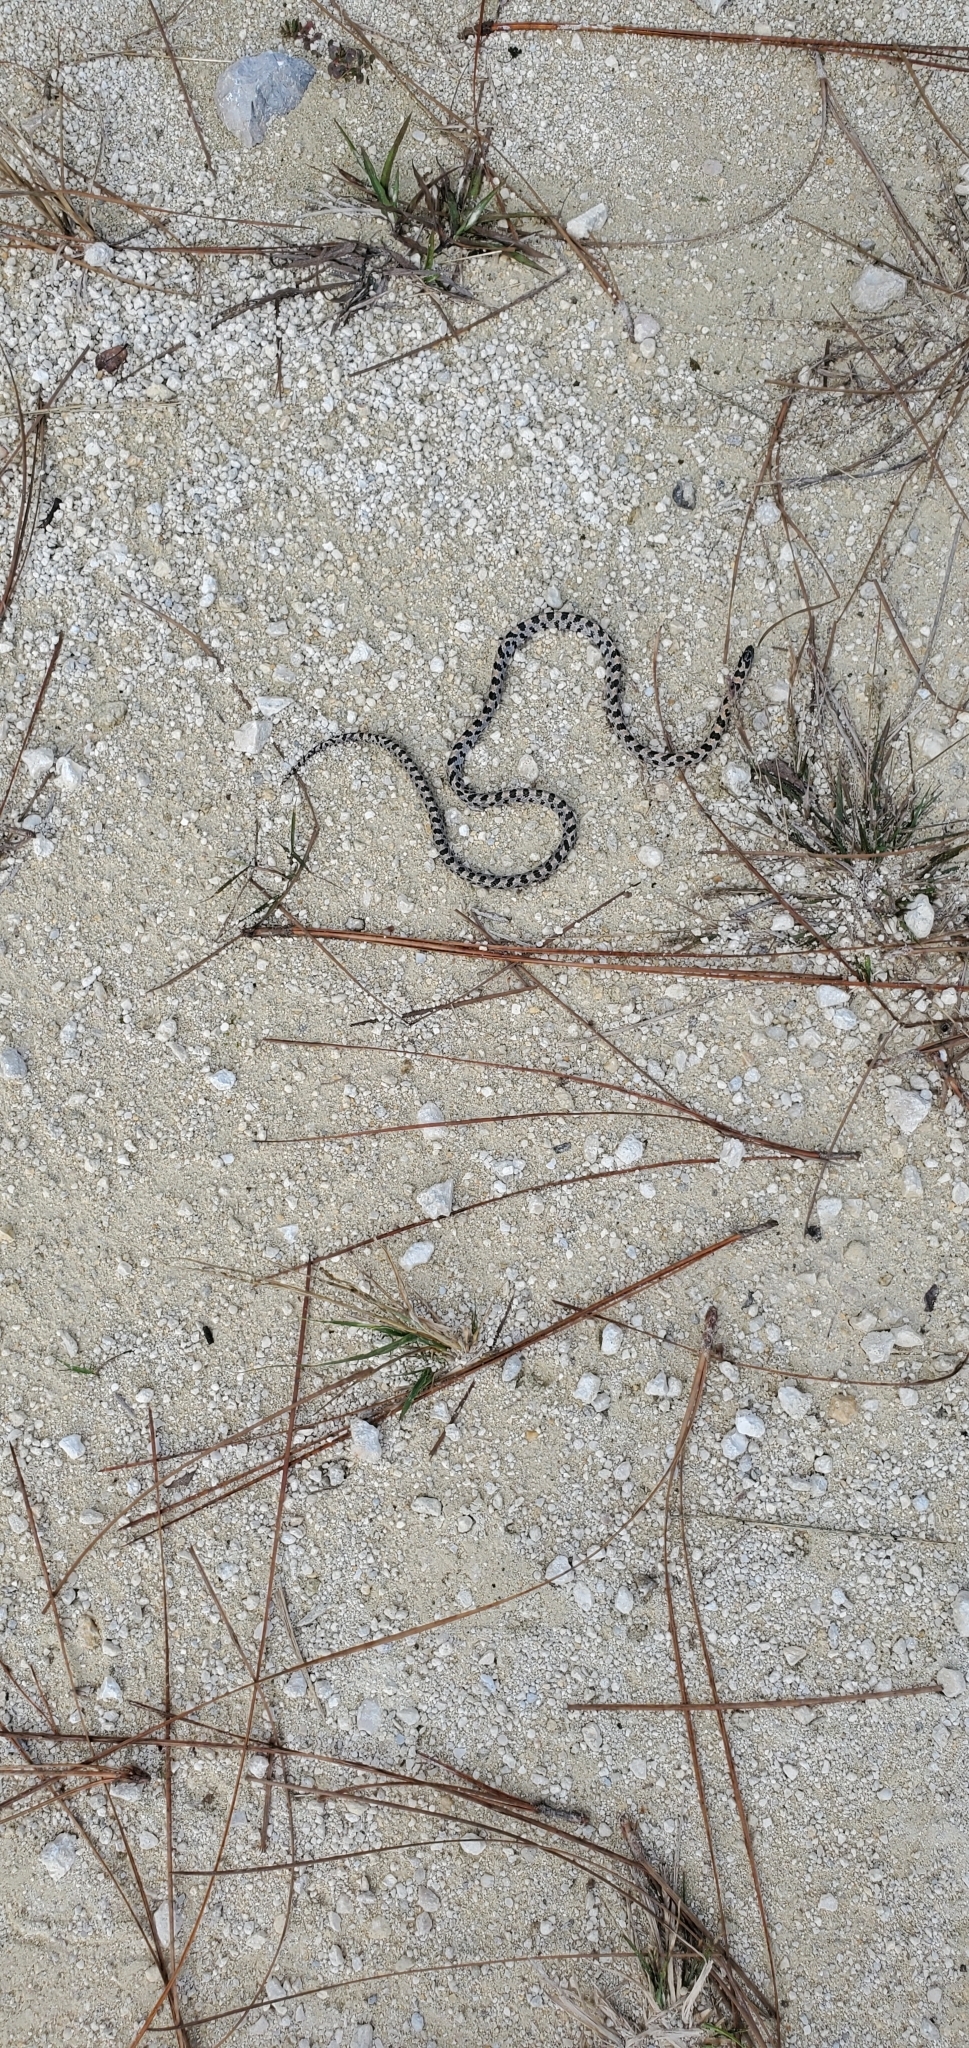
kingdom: Animalia
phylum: Chordata
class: Squamata
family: Colubridae
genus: Lampropeltis
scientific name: Lampropeltis extenuata
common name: Short-tailed snake
